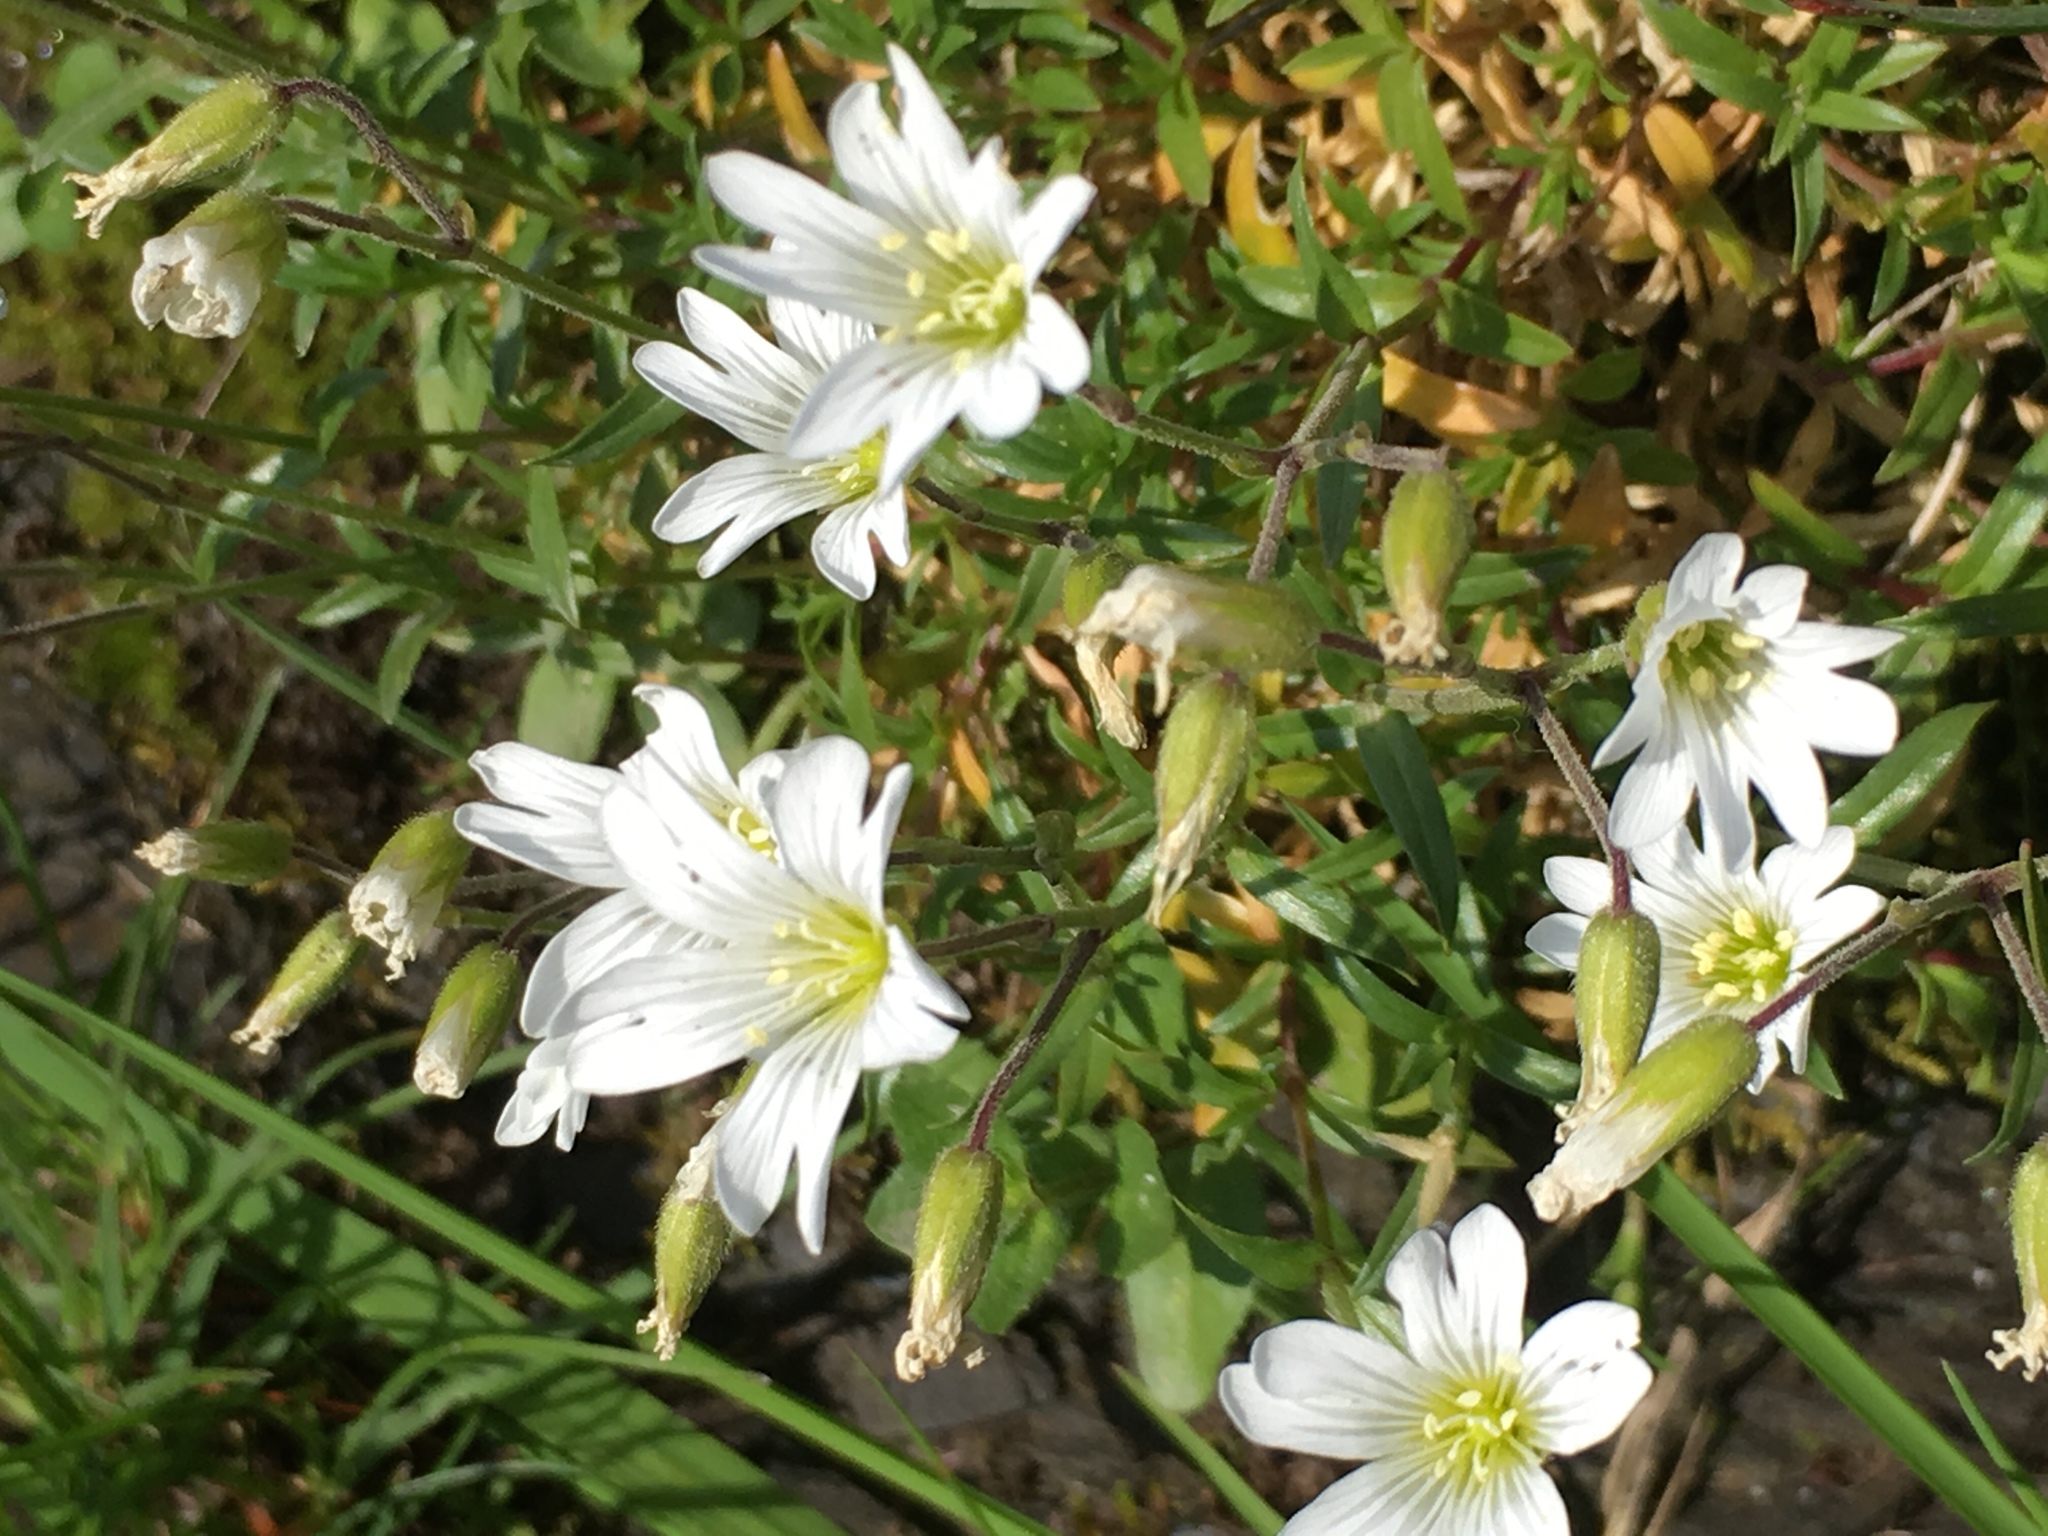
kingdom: Plantae
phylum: Tracheophyta
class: Magnoliopsida
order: Caryophyllales
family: Caryophyllaceae
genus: Cerastium
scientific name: Cerastium arvense
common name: Field mouse-ear
